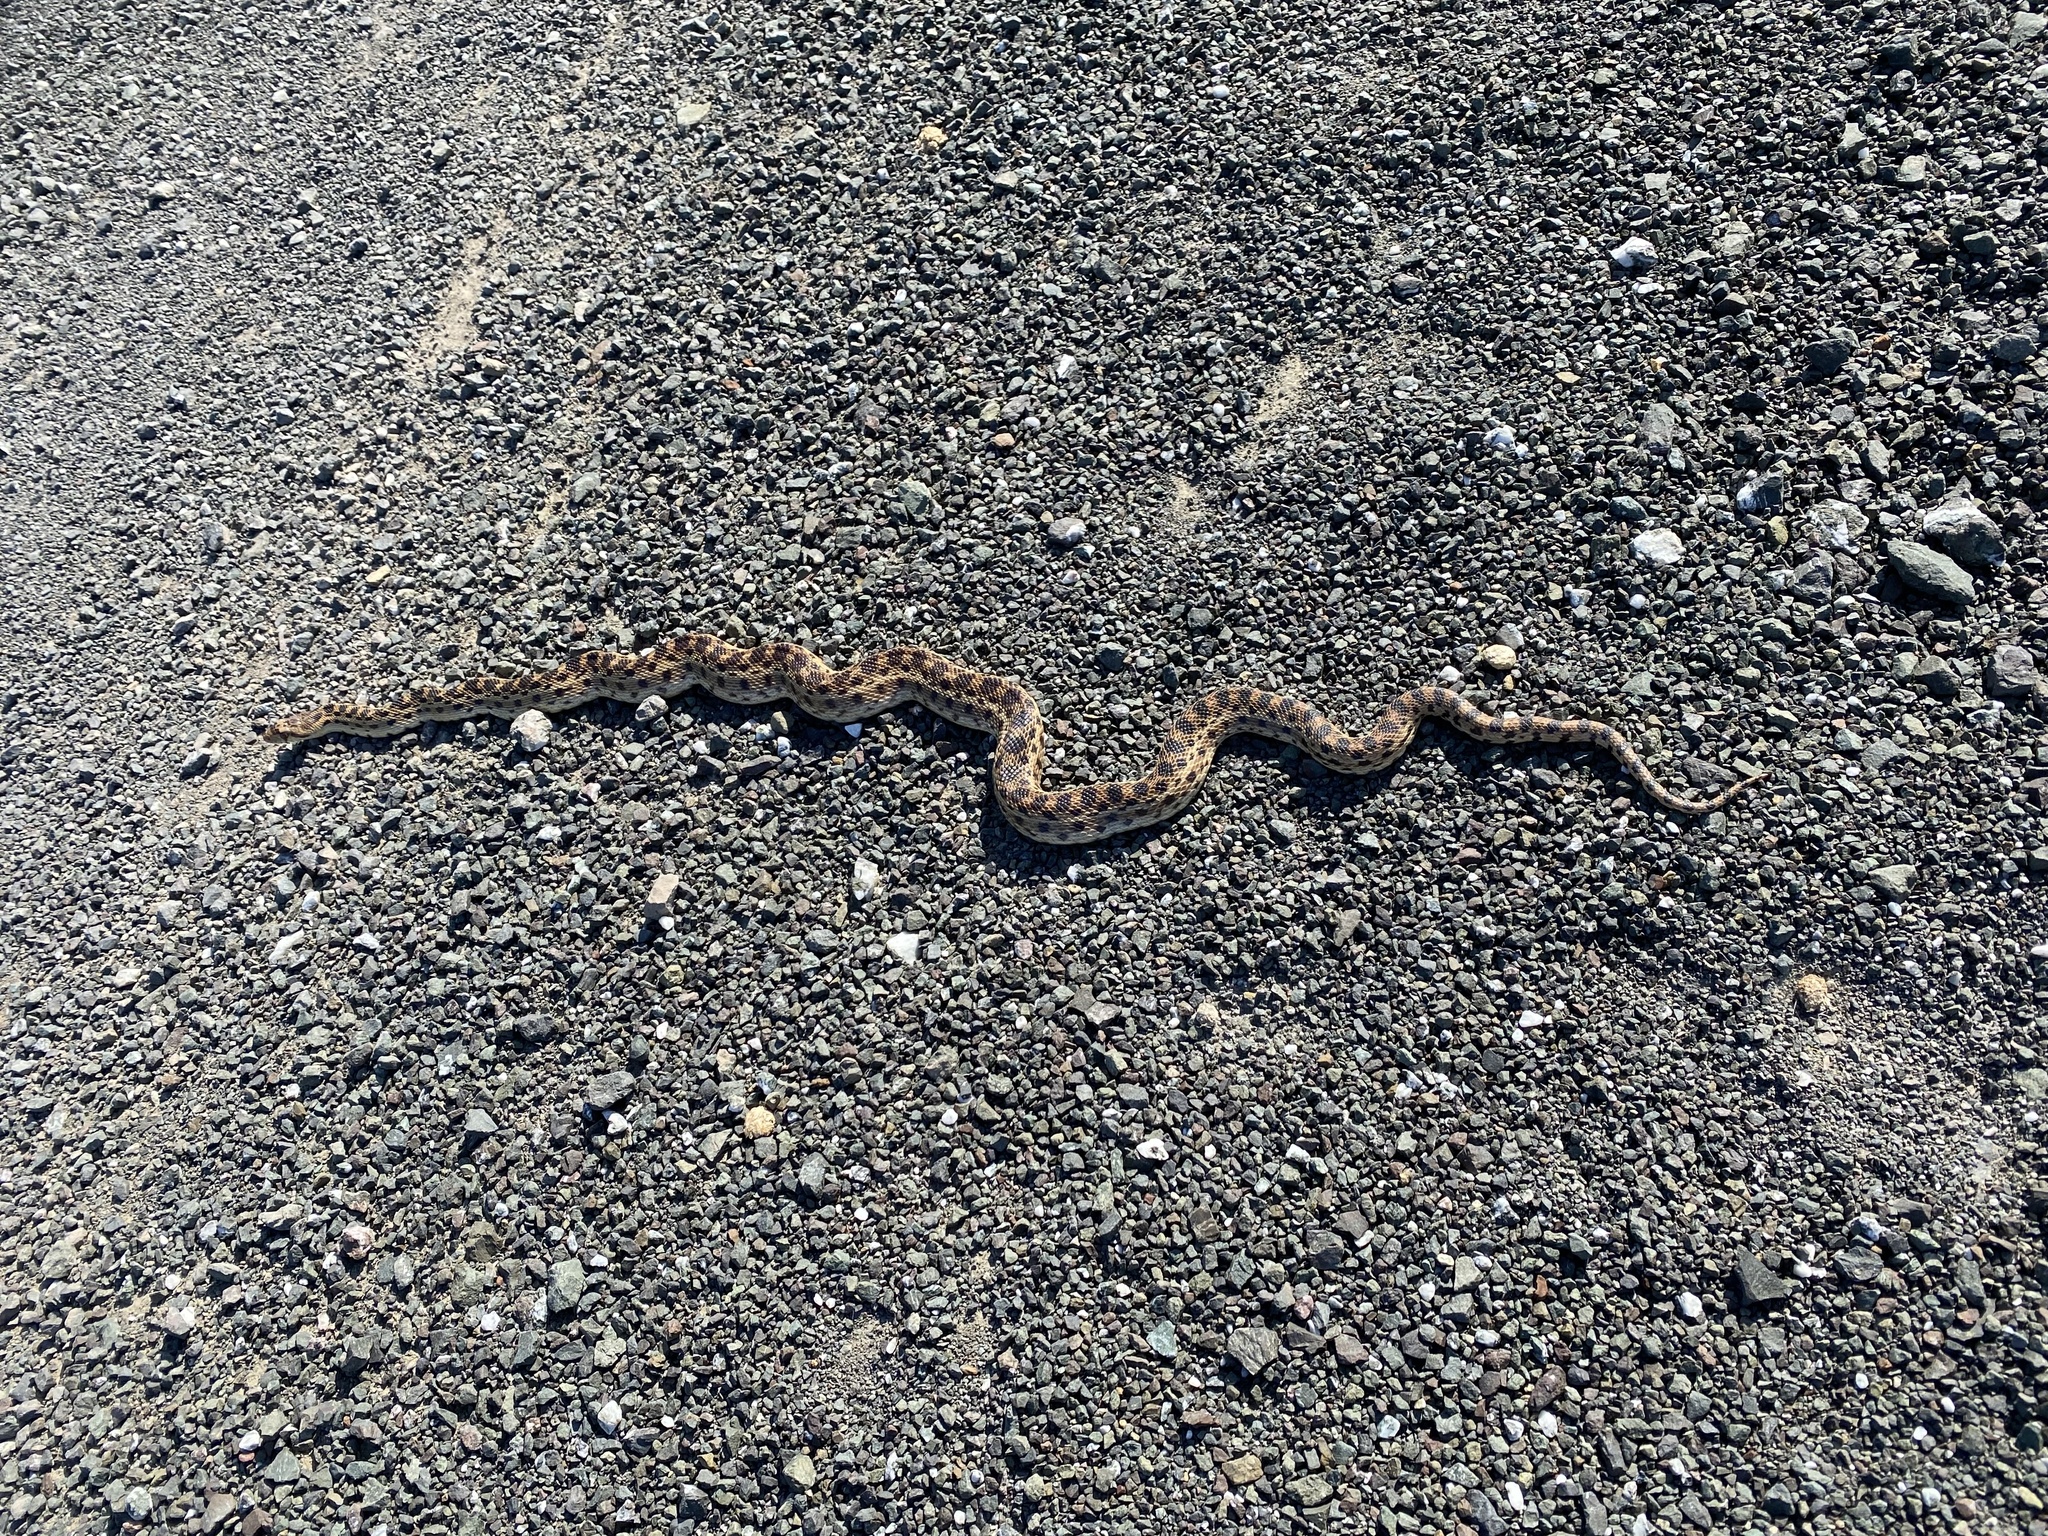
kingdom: Animalia
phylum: Chordata
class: Squamata
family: Colubridae
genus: Pituophis
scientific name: Pituophis catenifer
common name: Gopher snake
